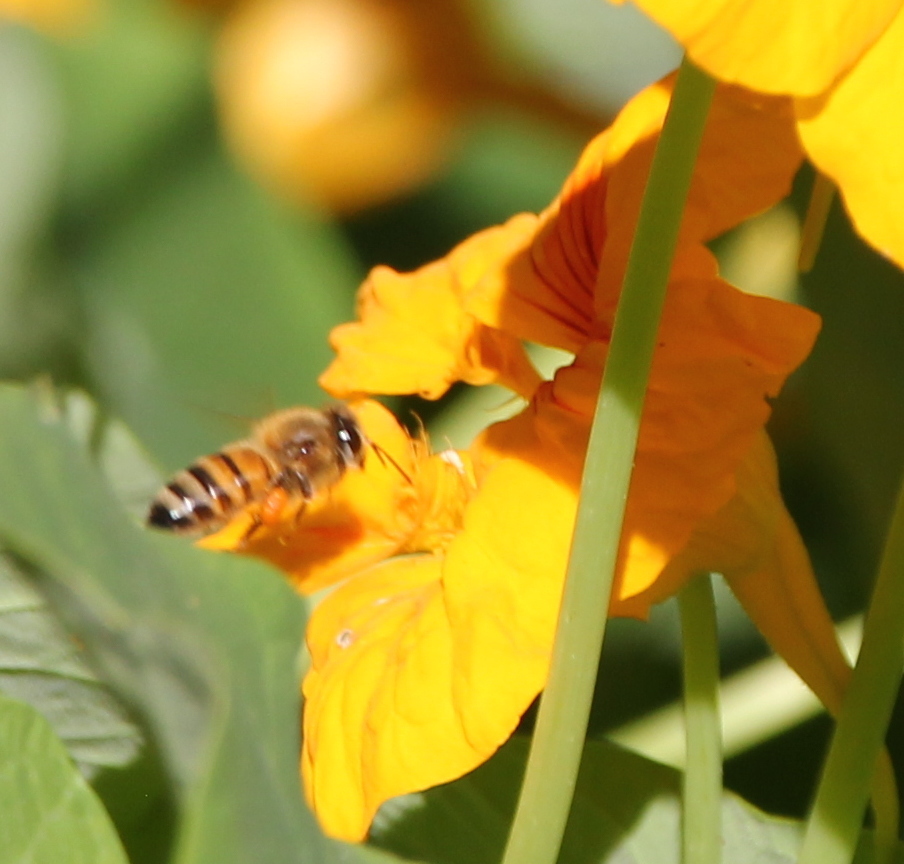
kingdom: Animalia
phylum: Arthropoda
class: Insecta
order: Hymenoptera
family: Apidae
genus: Apis
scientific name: Apis mellifera
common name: Honey bee
